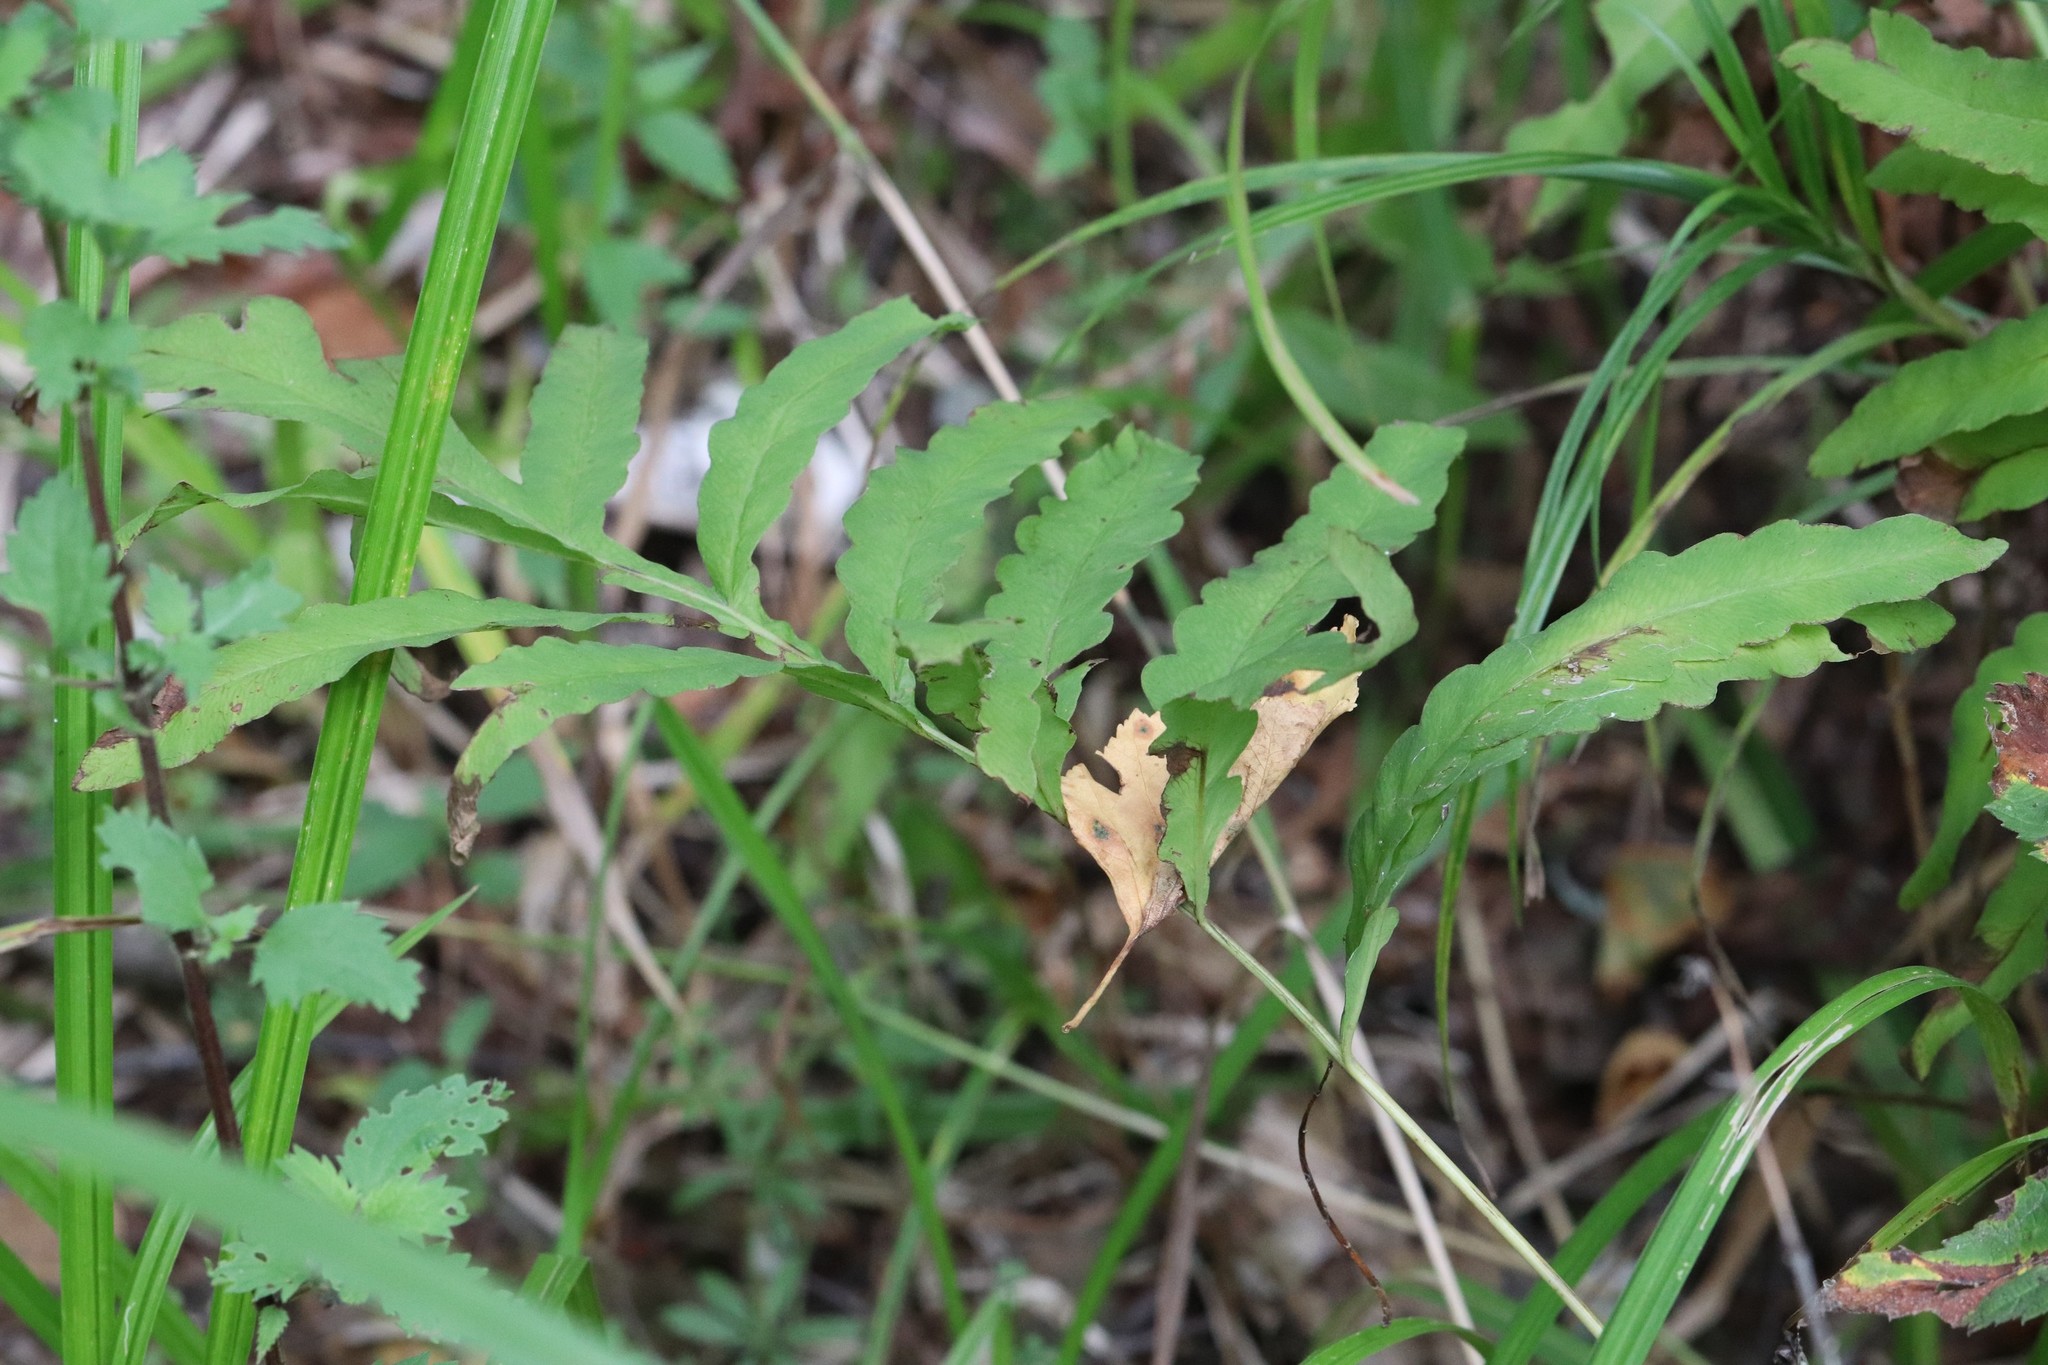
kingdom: Plantae
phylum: Tracheophyta
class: Polypodiopsida
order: Polypodiales
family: Onocleaceae
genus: Onoclea
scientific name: Onoclea sensibilis
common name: Sensitive fern
